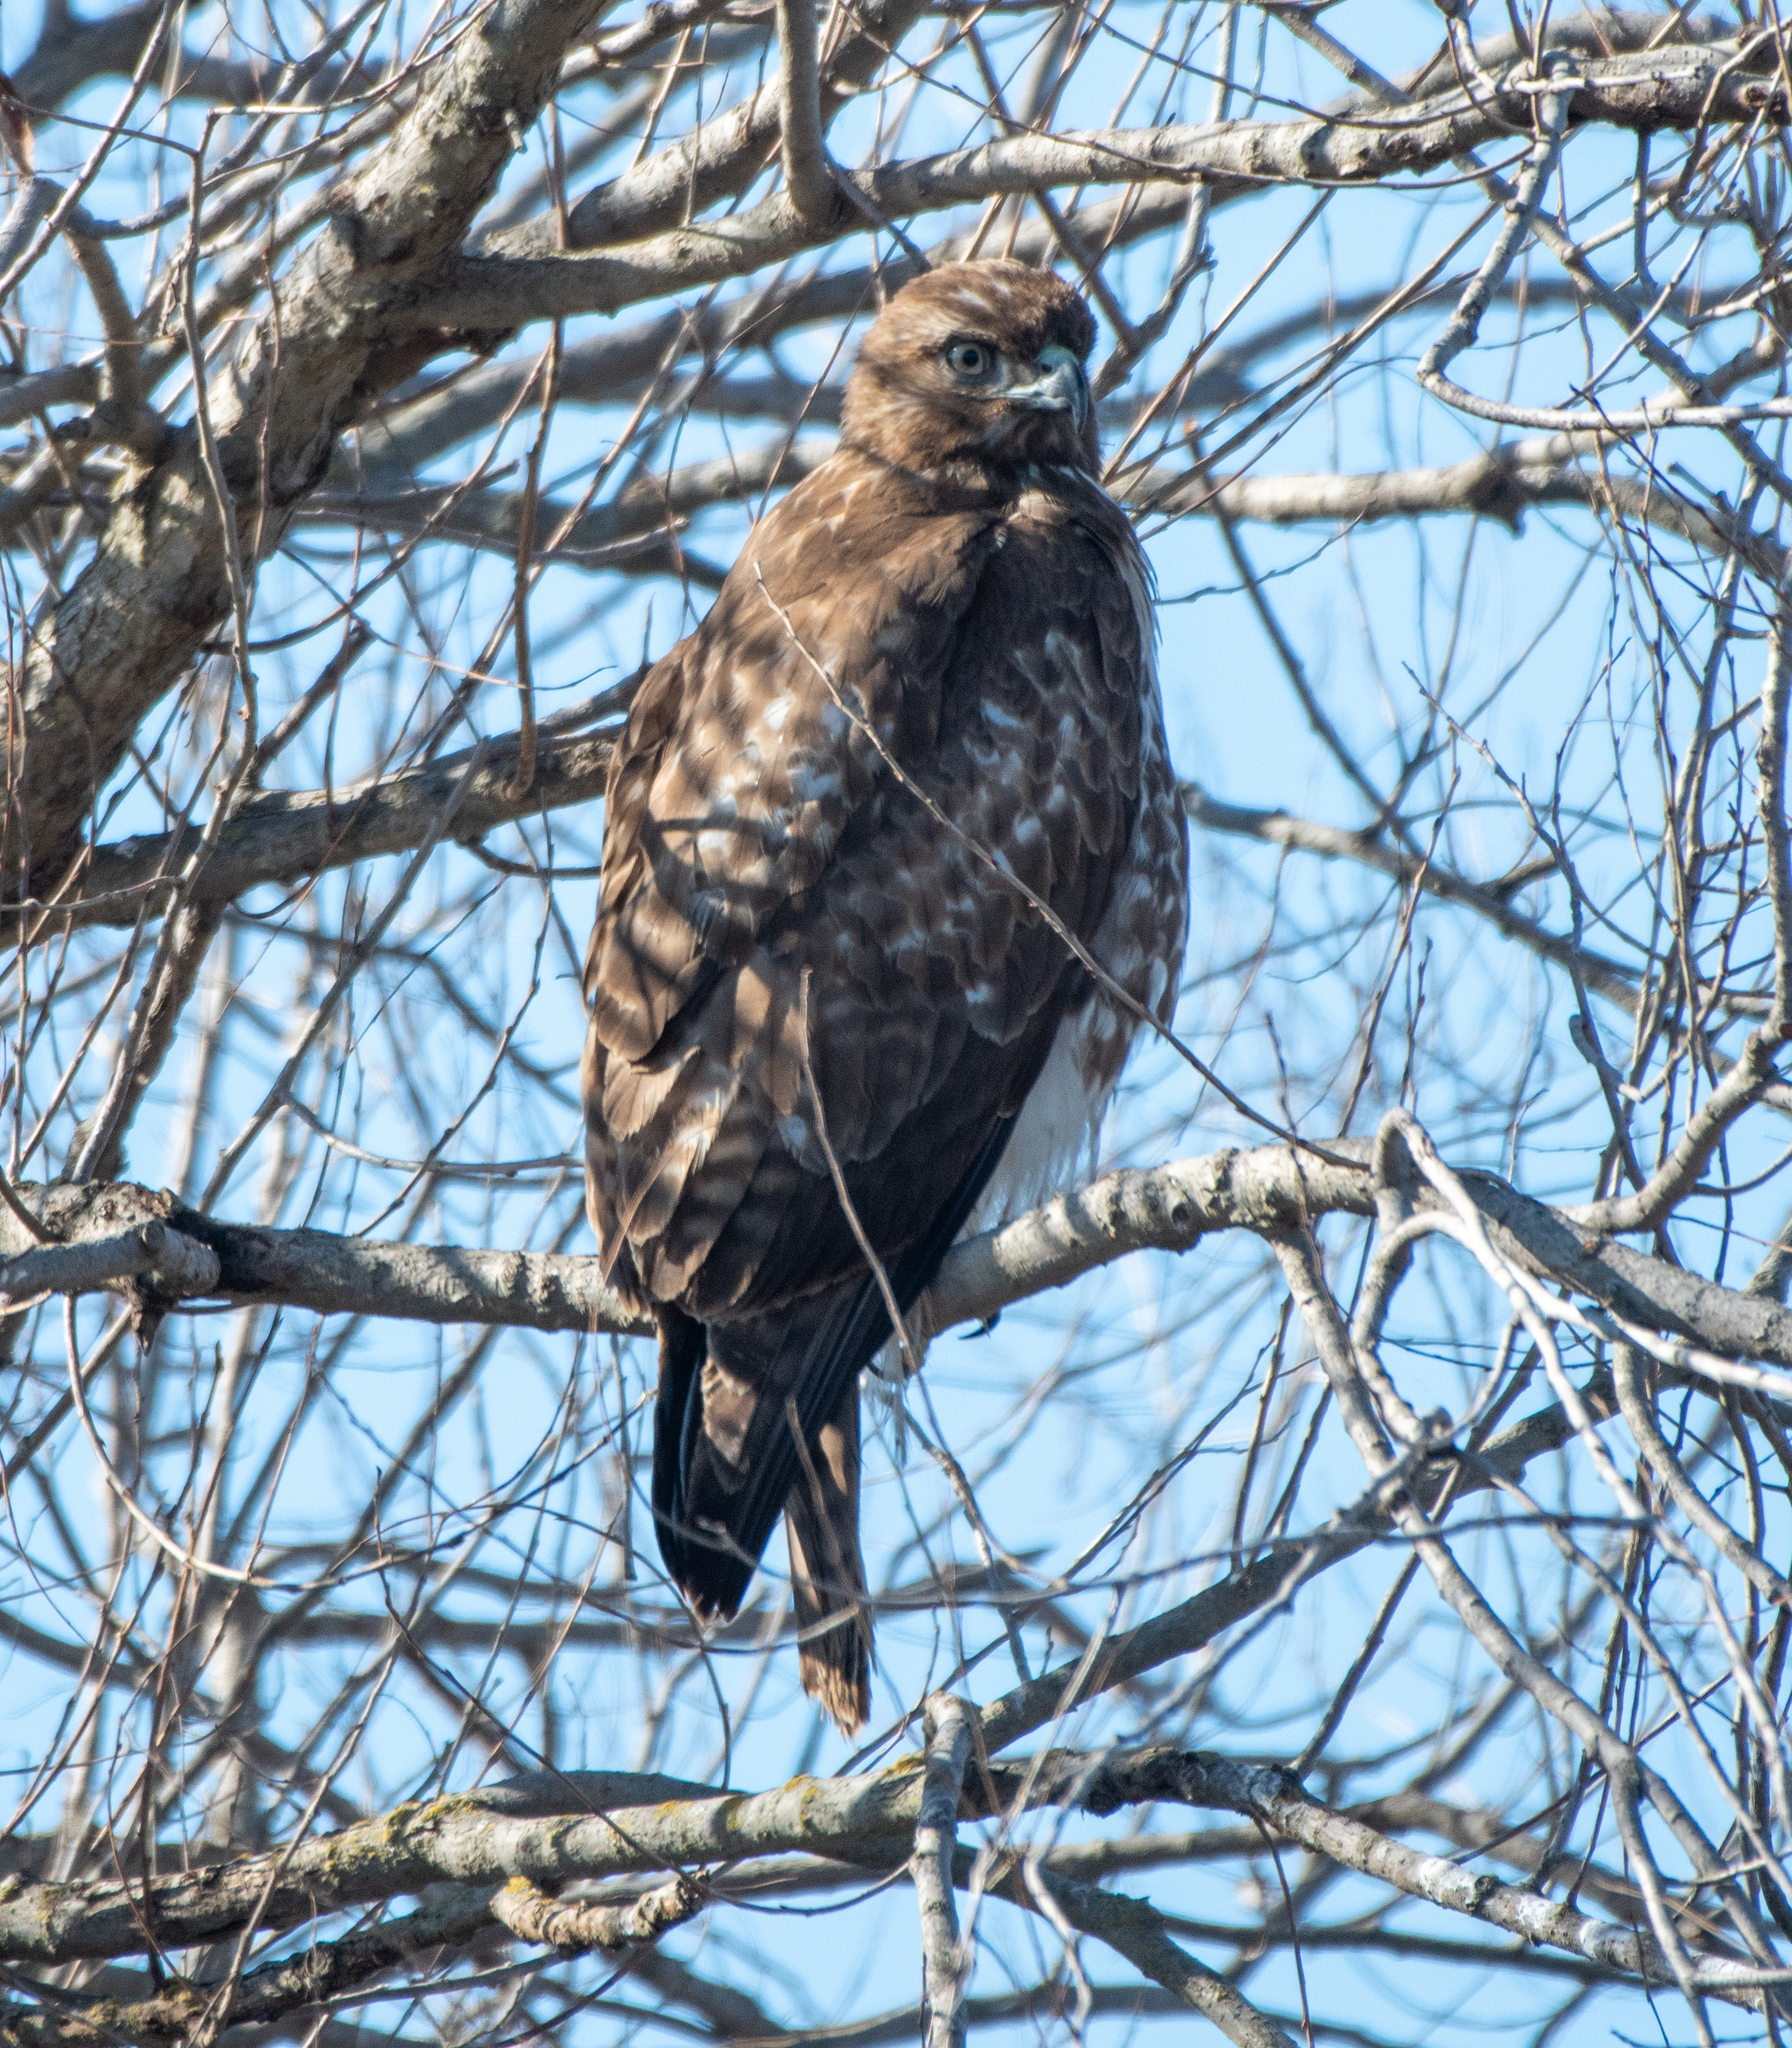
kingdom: Animalia
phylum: Chordata
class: Aves
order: Accipitriformes
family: Accipitridae
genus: Buteo
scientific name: Buteo jamaicensis
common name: Red-tailed hawk
